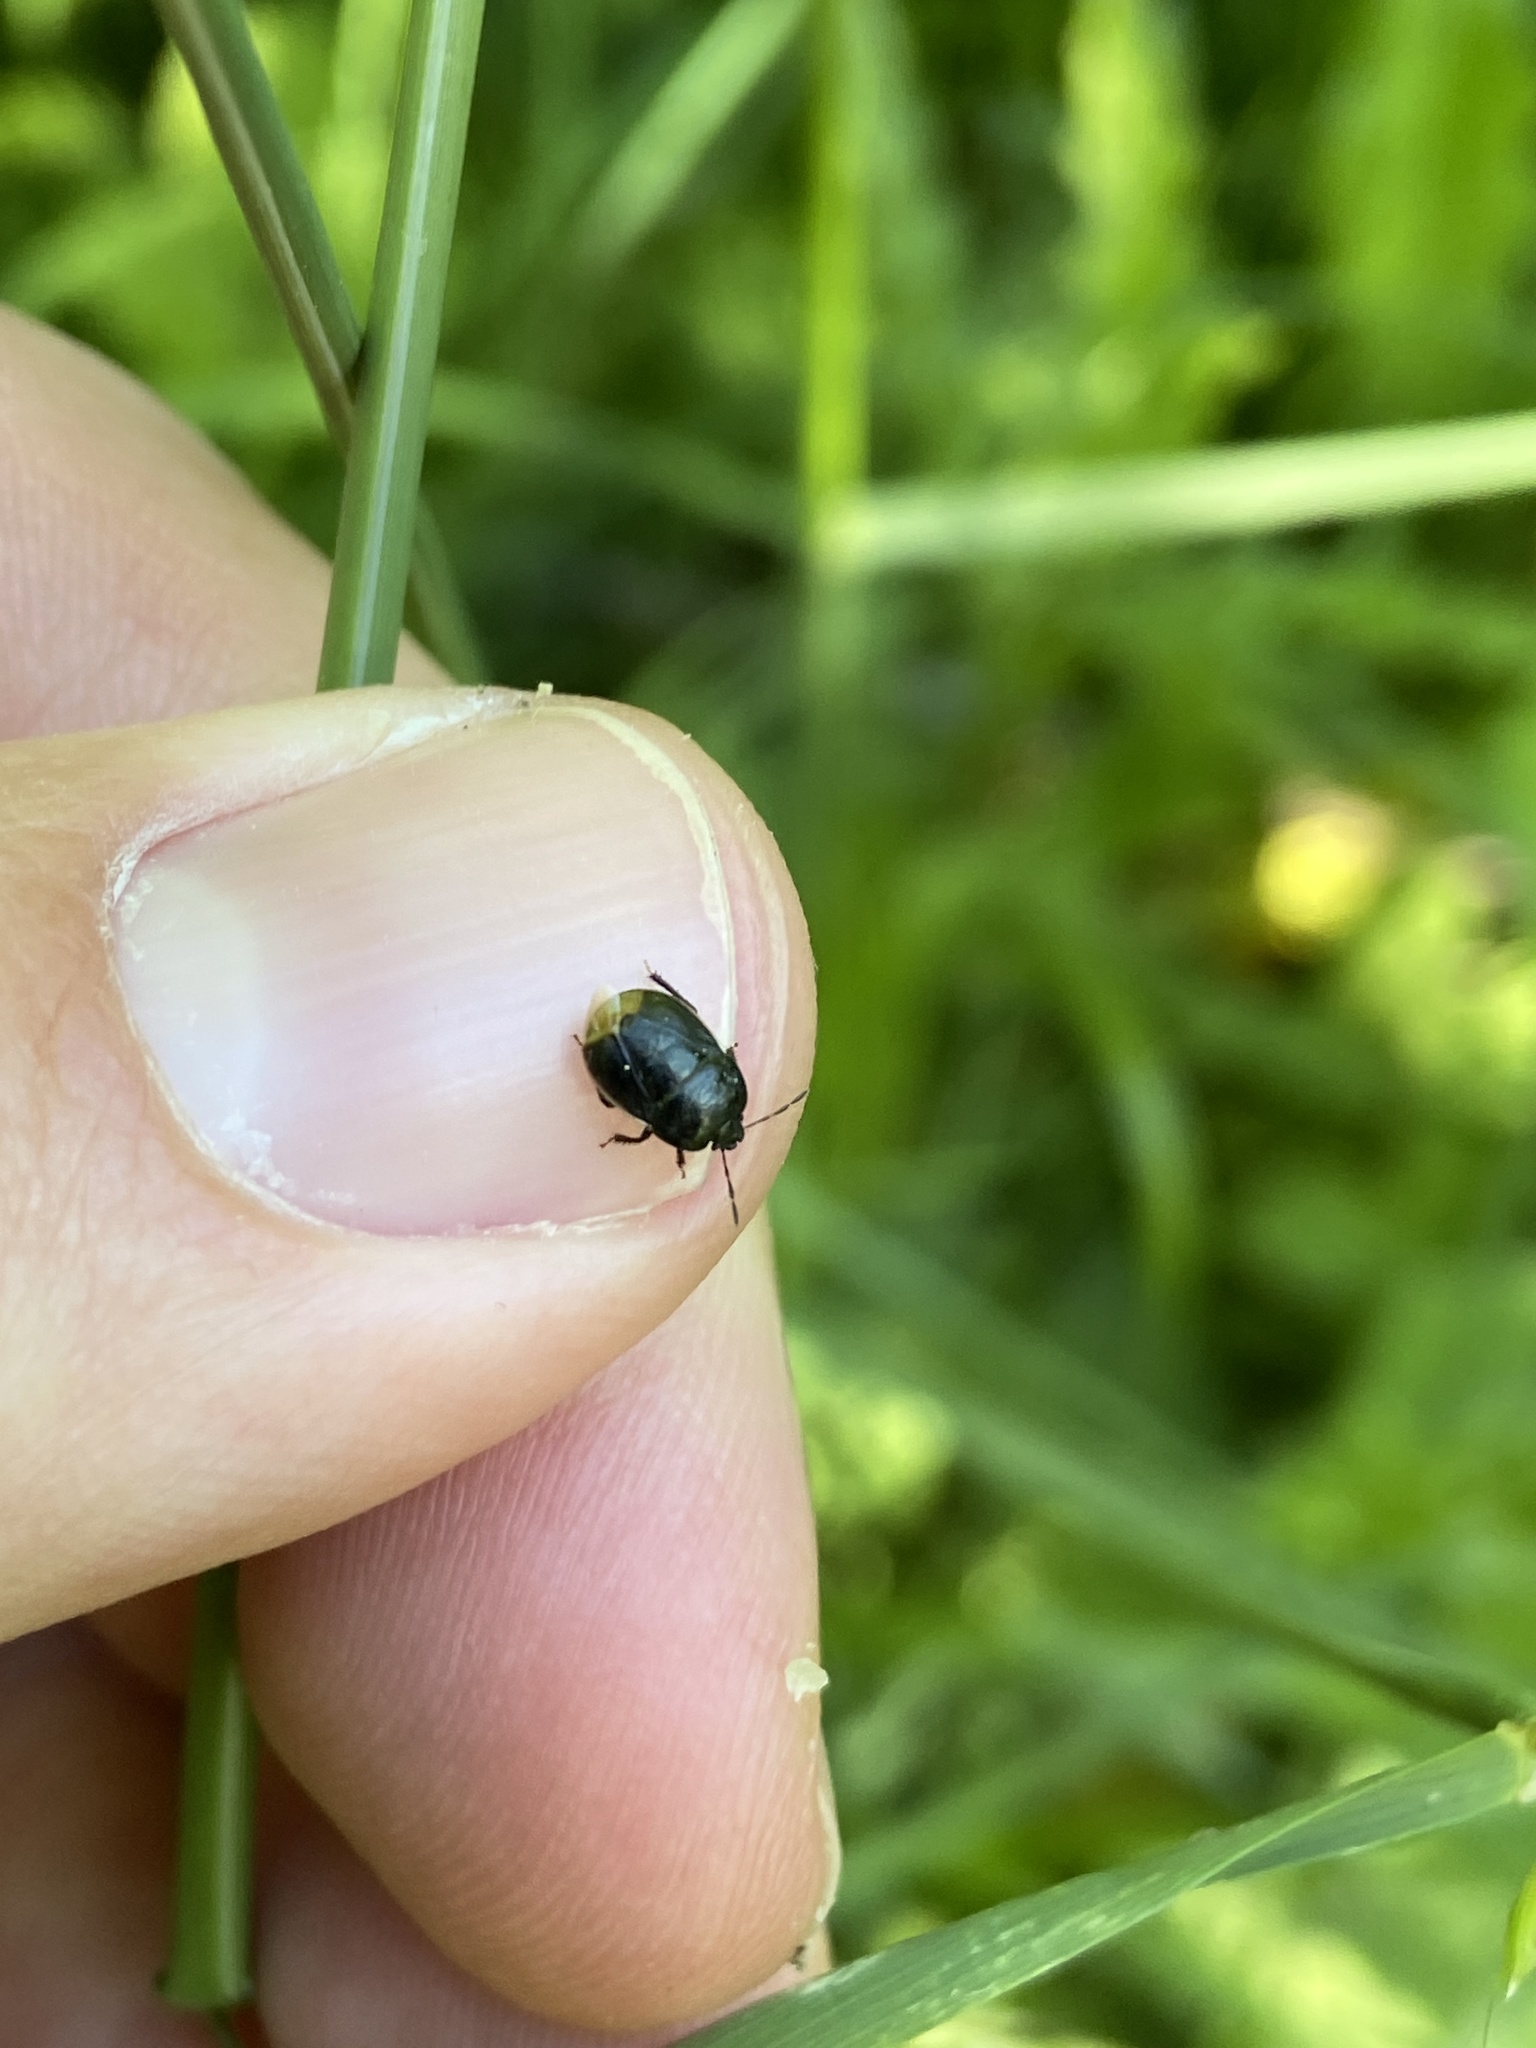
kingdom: Animalia
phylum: Arthropoda
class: Insecta
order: Hemiptera
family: Cydnidae
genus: Legnotus
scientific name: Legnotus limbosus
